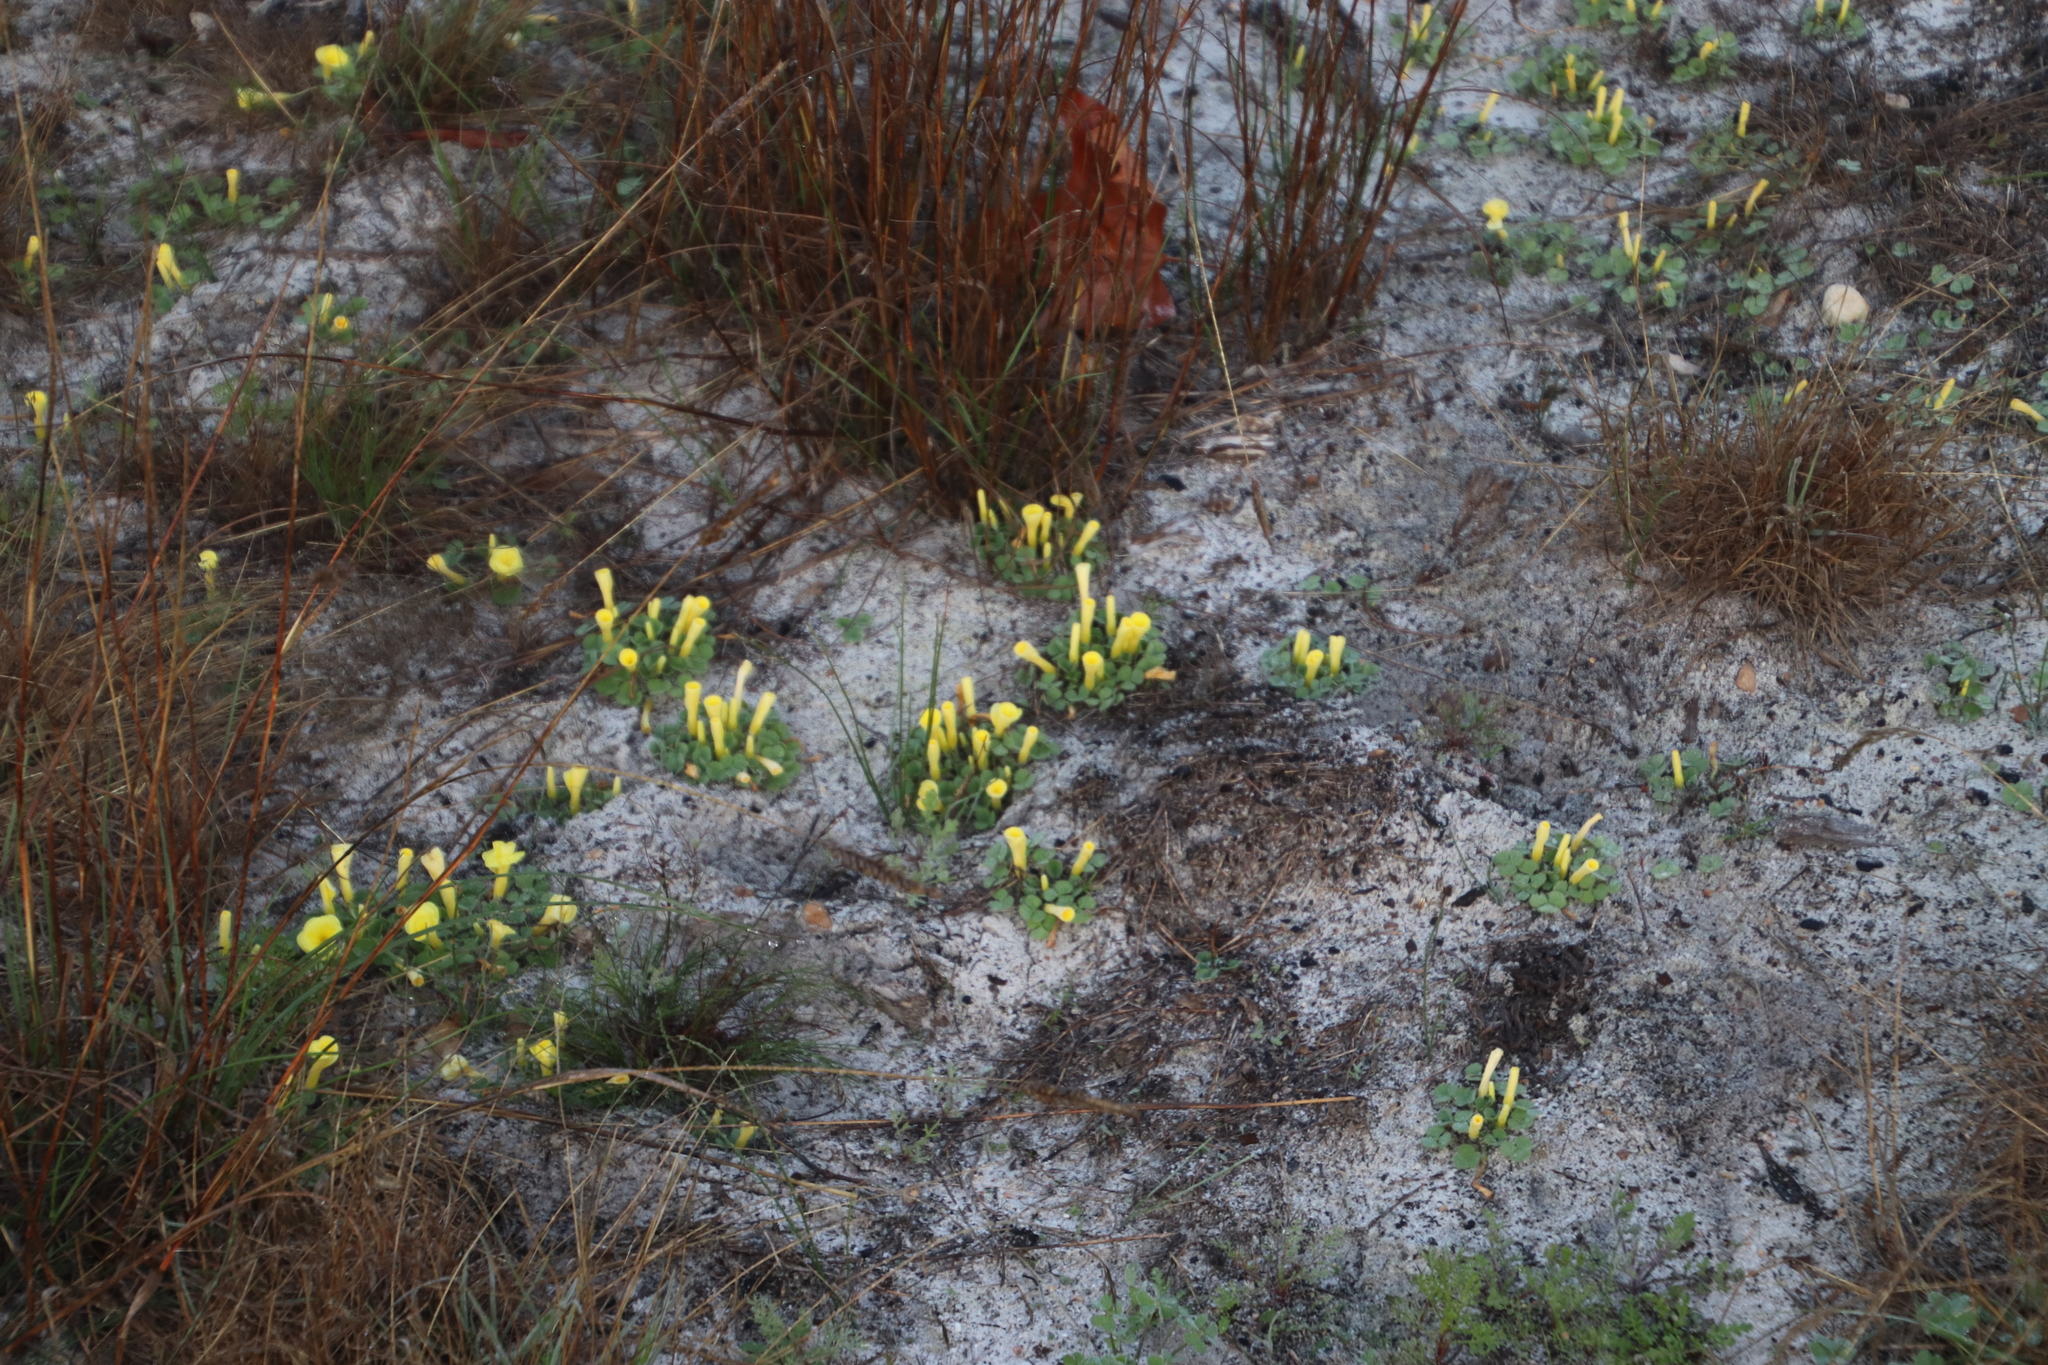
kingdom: Plantae
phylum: Tracheophyta
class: Magnoliopsida
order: Oxalidales
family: Oxalidaceae
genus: Oxalis
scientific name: Oxalis luteola
